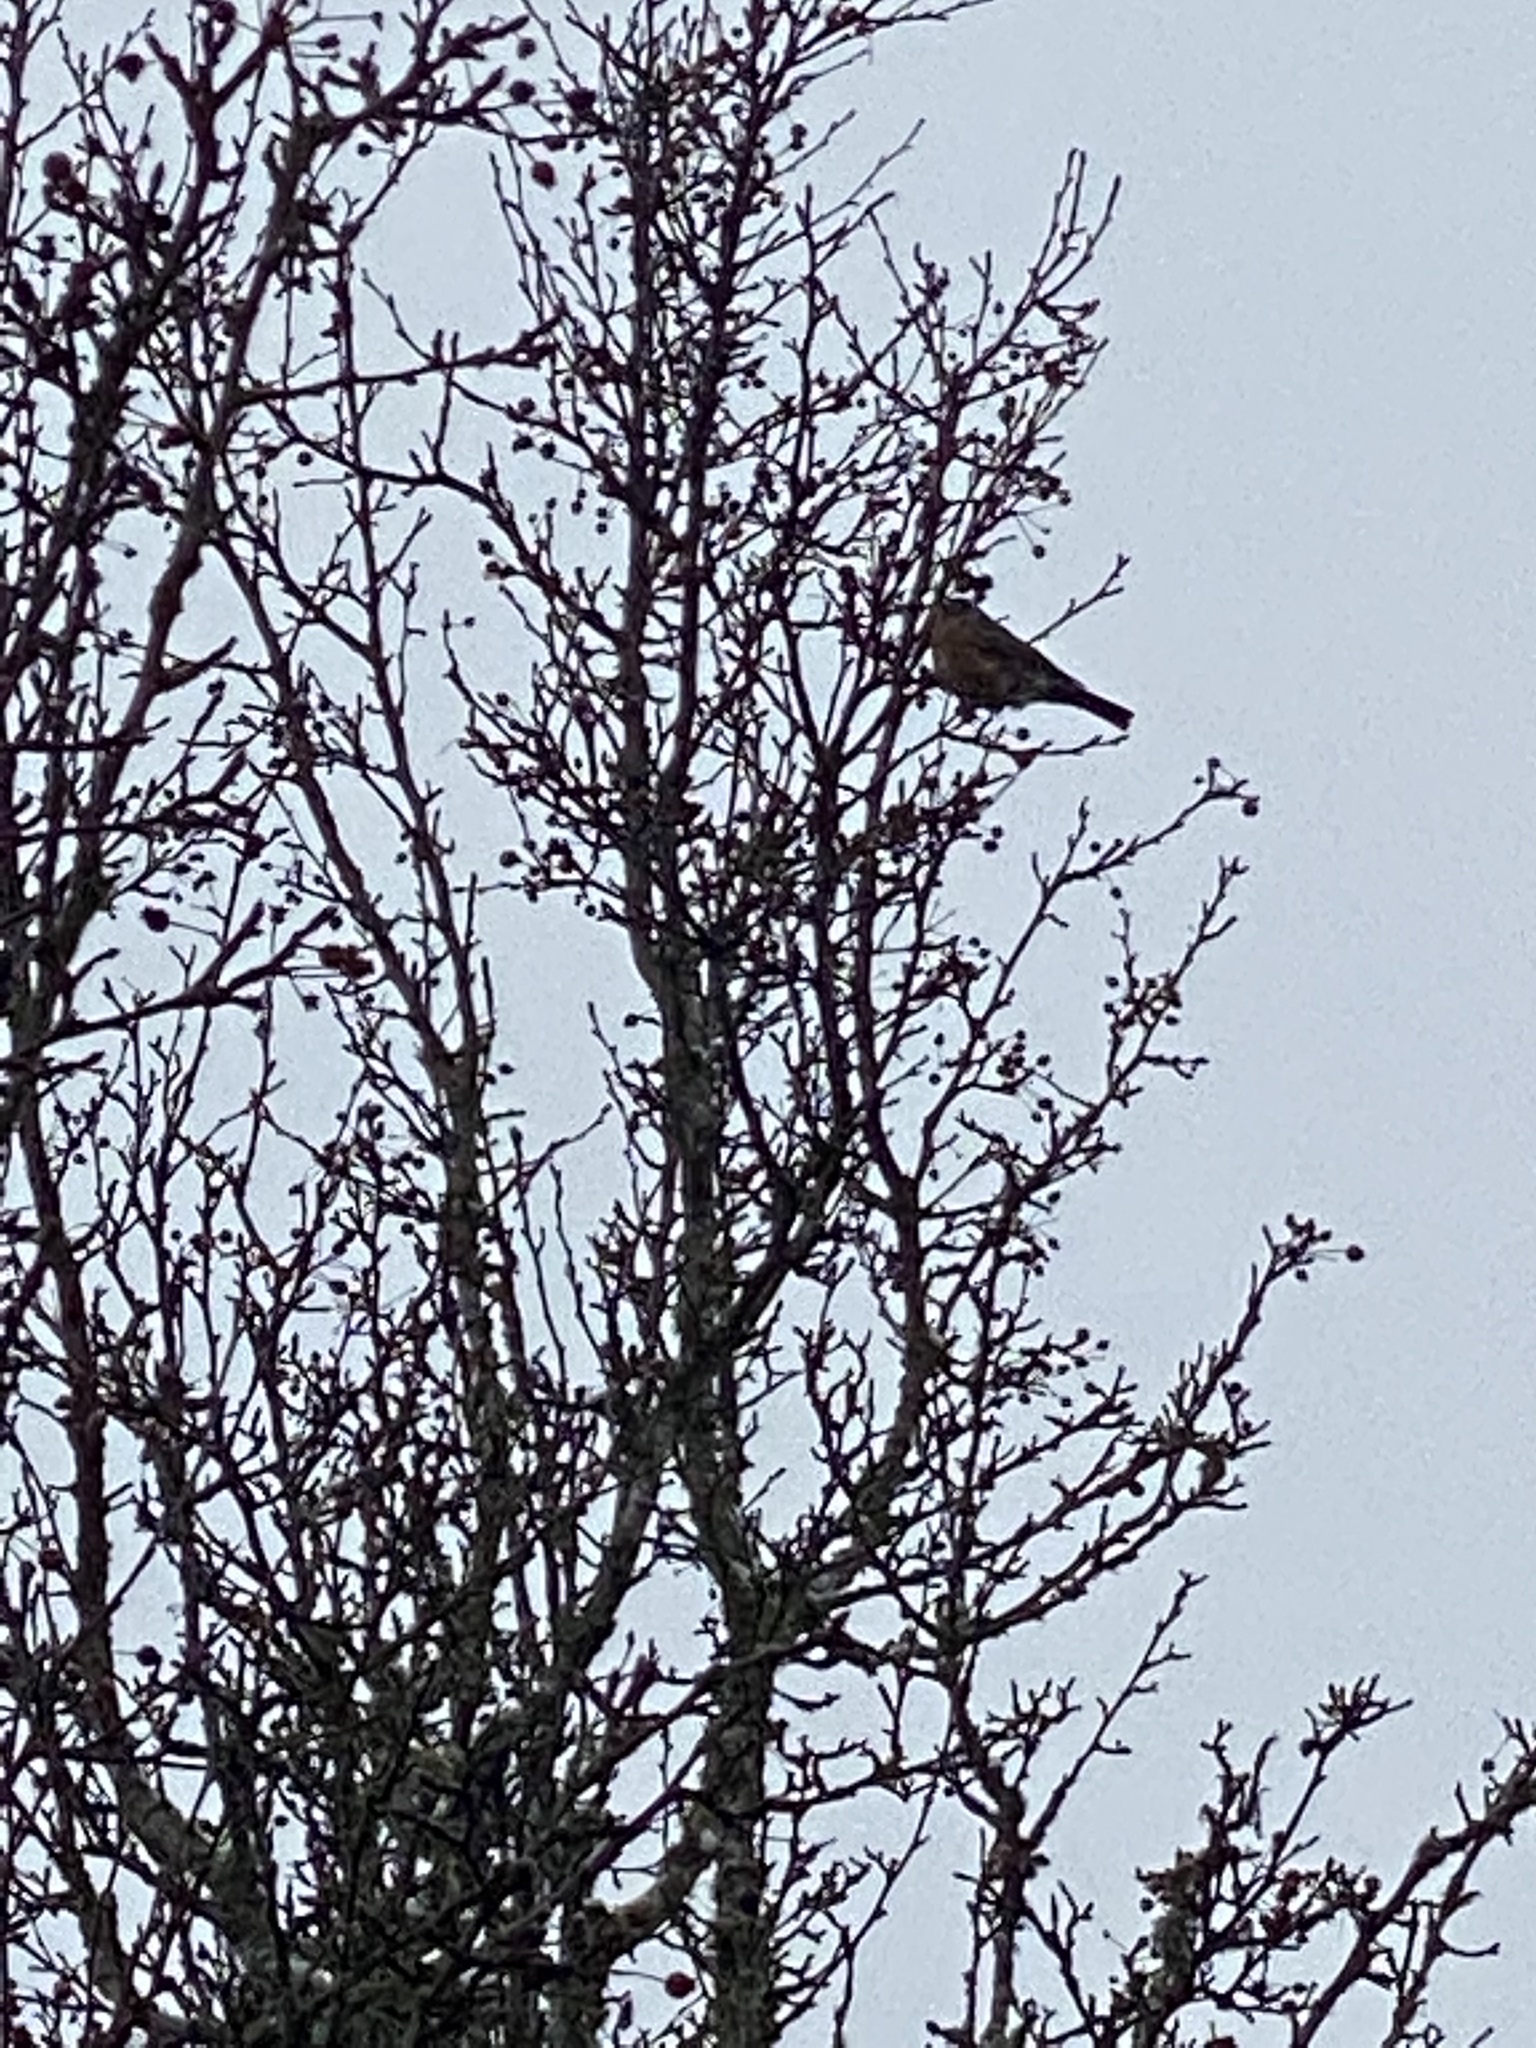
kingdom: Animalia
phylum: Chordata
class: Aves
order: Passeriformes
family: Turdidae
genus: Turdus
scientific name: Turdus migratorius
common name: American robin
